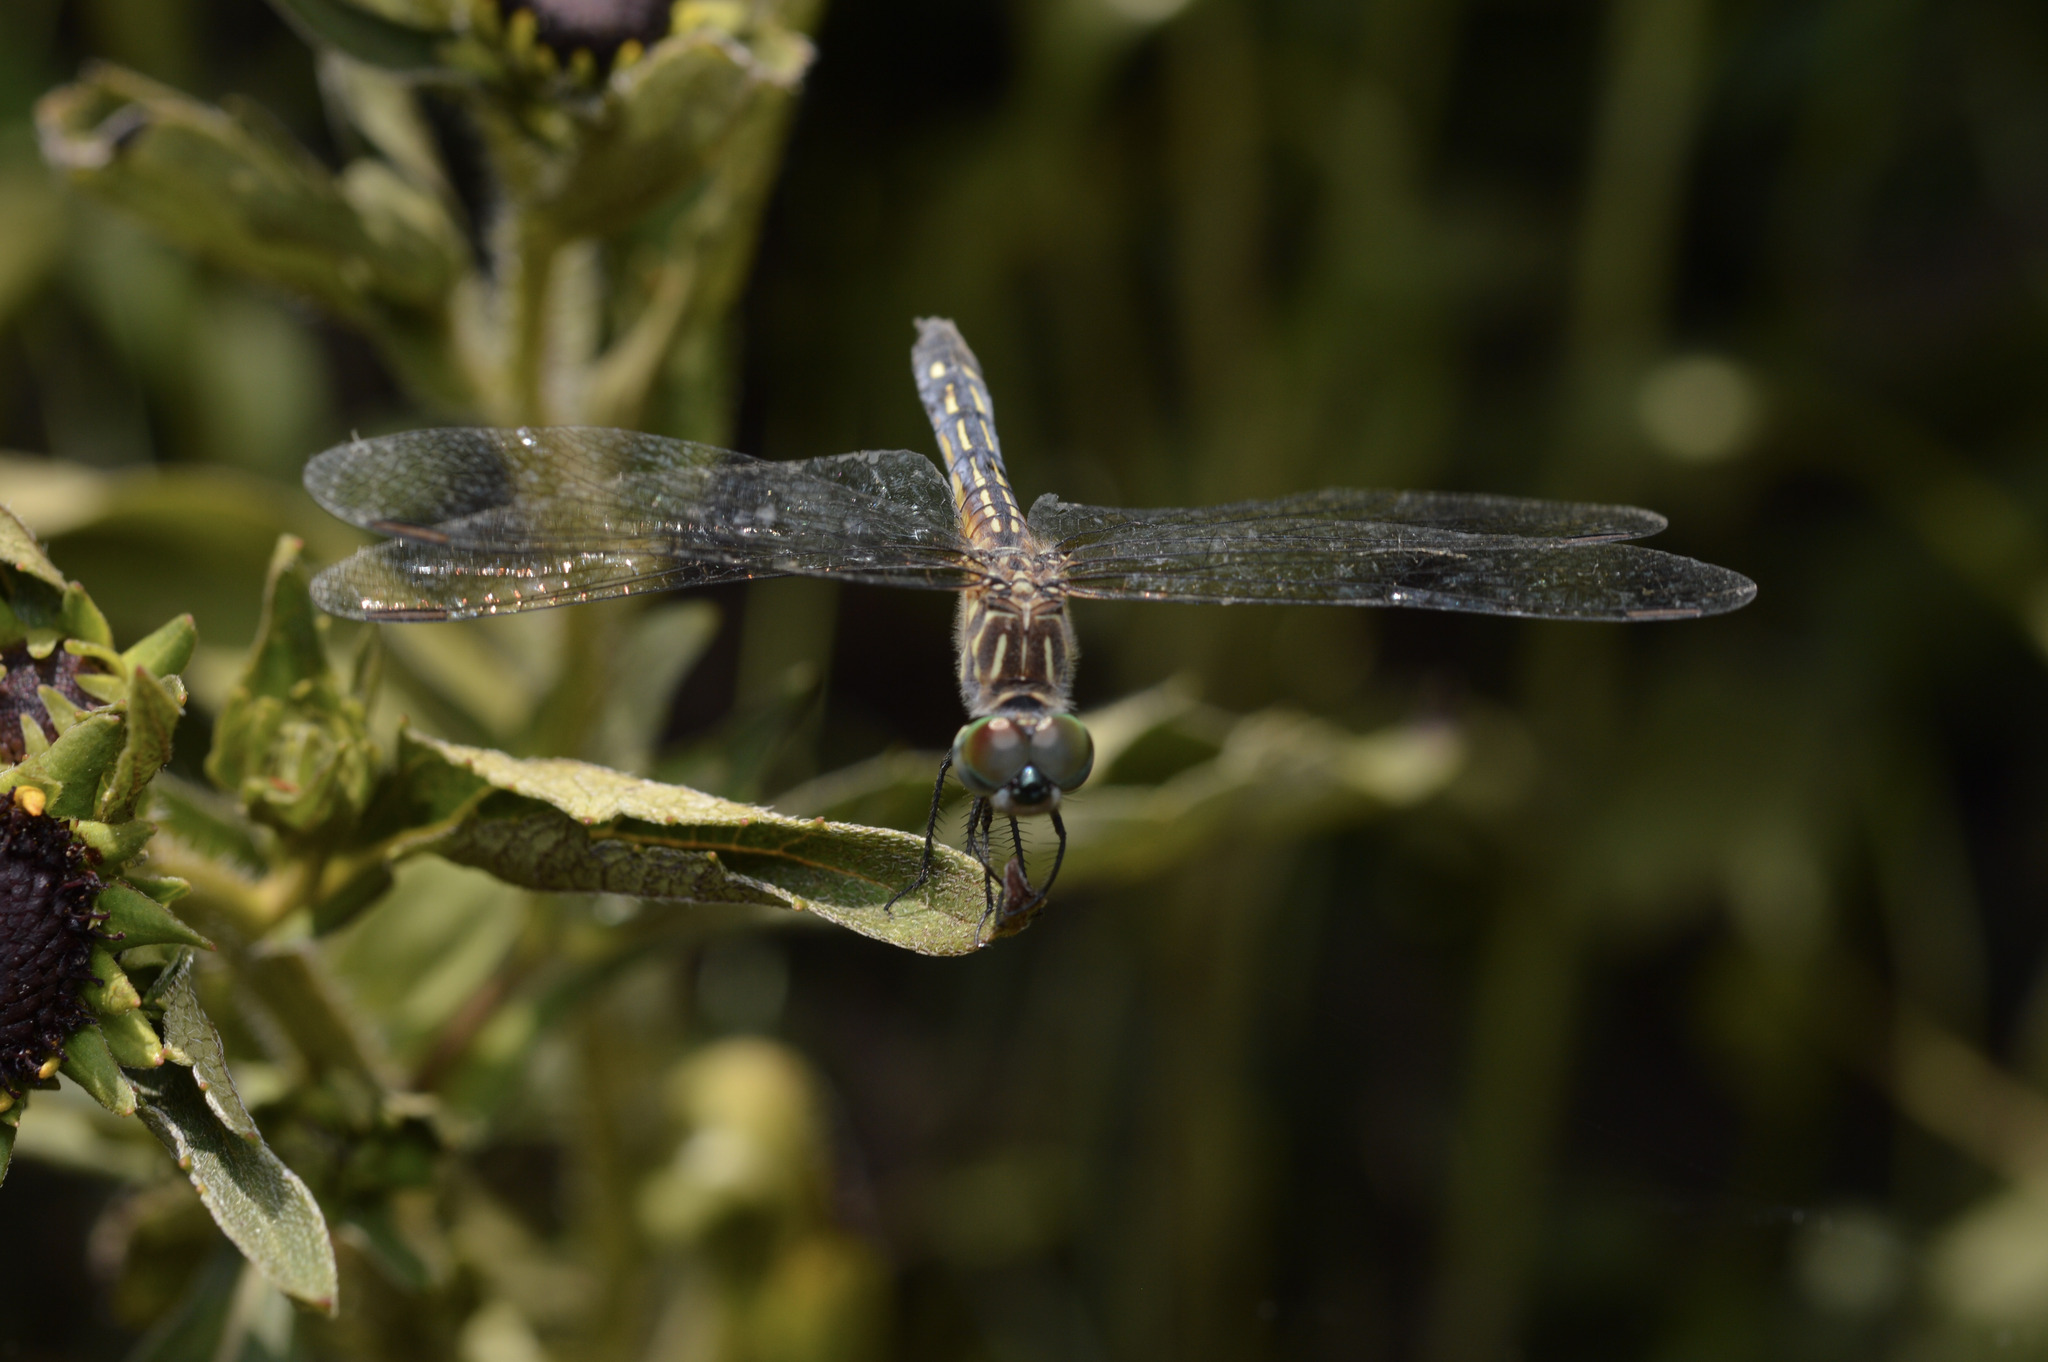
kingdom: Animalia
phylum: Arthropoda
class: Insecta
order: Odonata
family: Libellulidae
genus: Pachydiplax
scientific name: Pachydiplax longipennis
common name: Blue dasher
